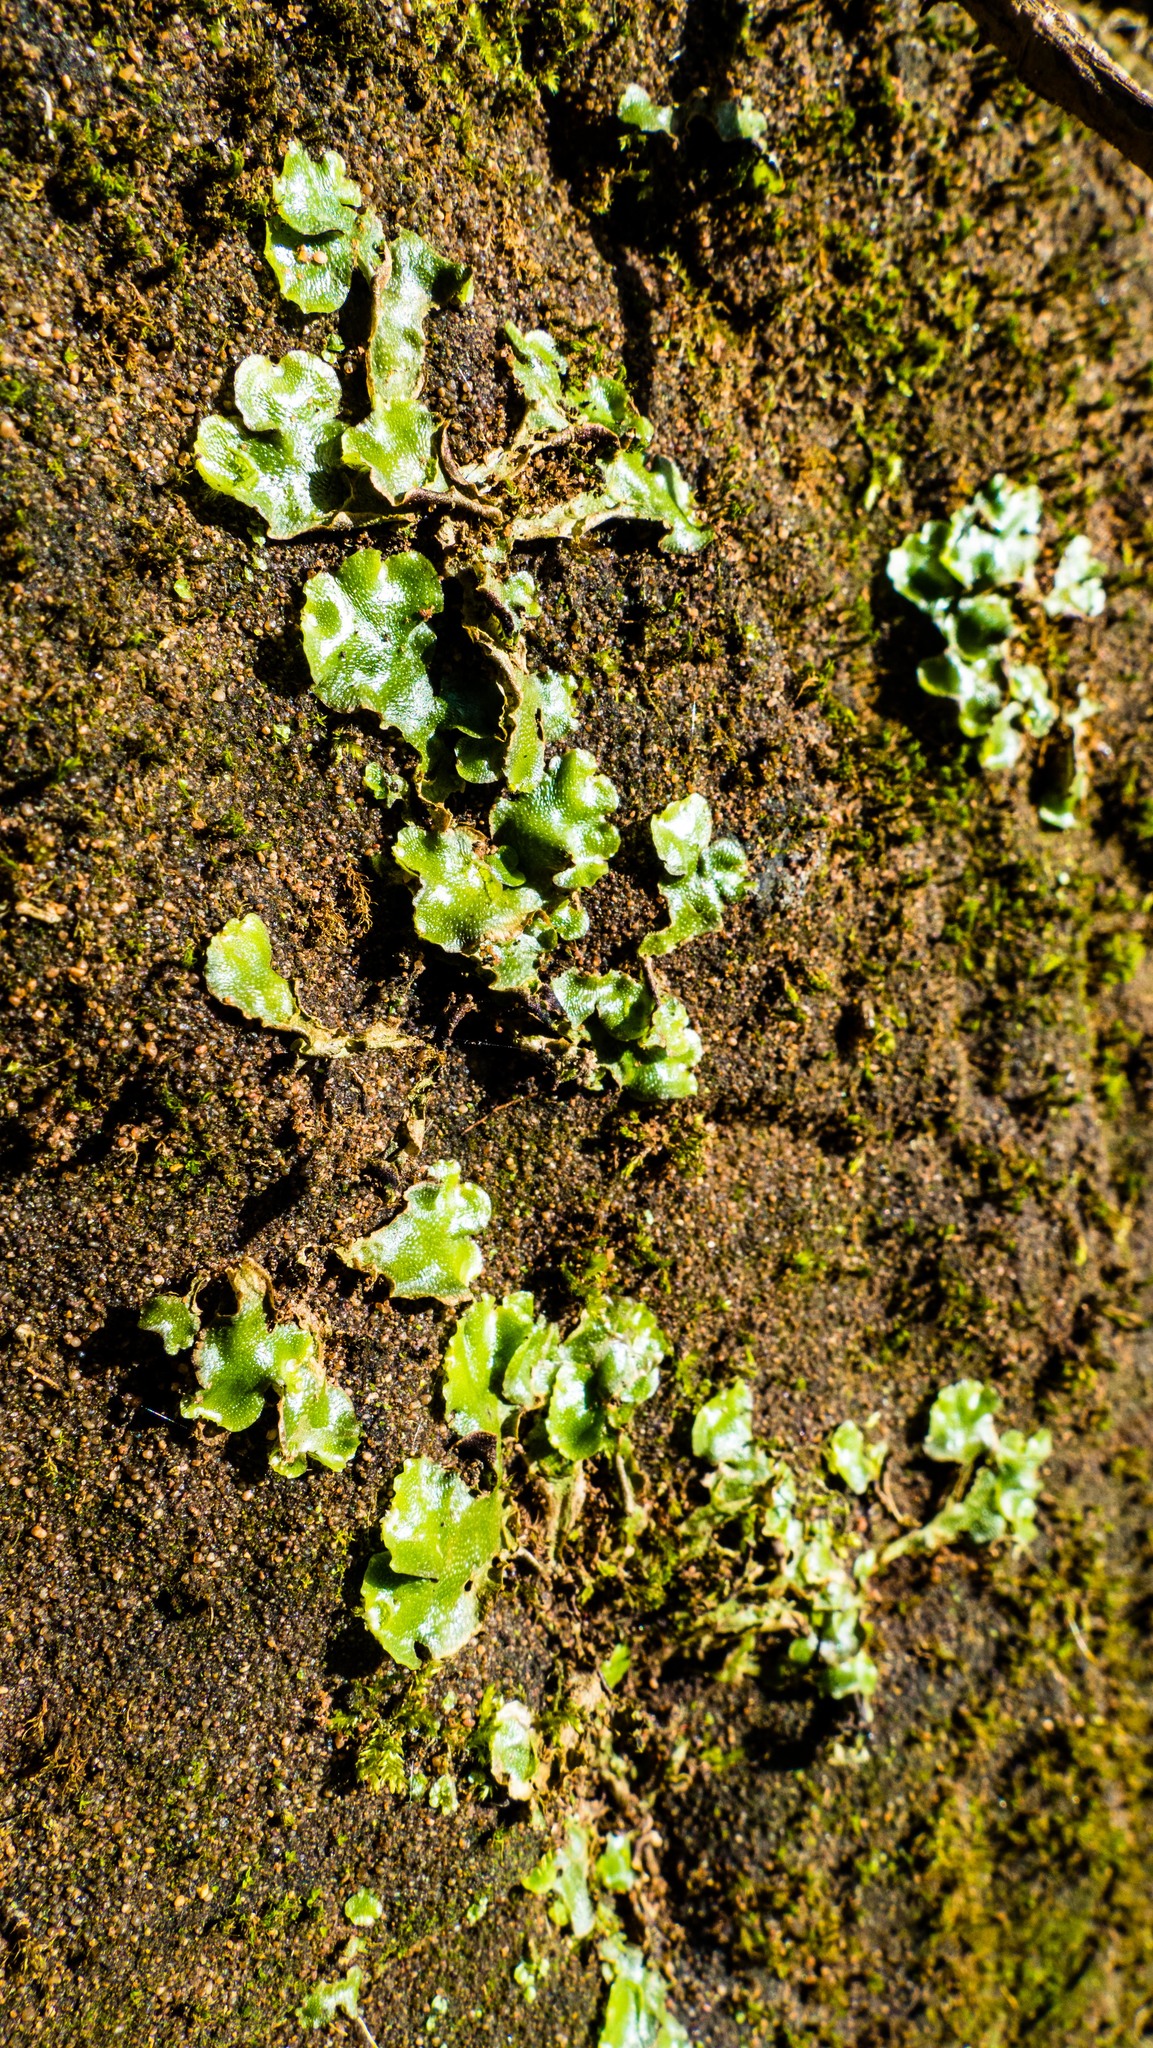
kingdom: Plantae
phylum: Marchantiophyta
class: Marchantiopsida
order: Lunulariales
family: Lunulariaceae
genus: Lunularia
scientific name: Lunularia cruciata
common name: Crescent-cup liverwort
